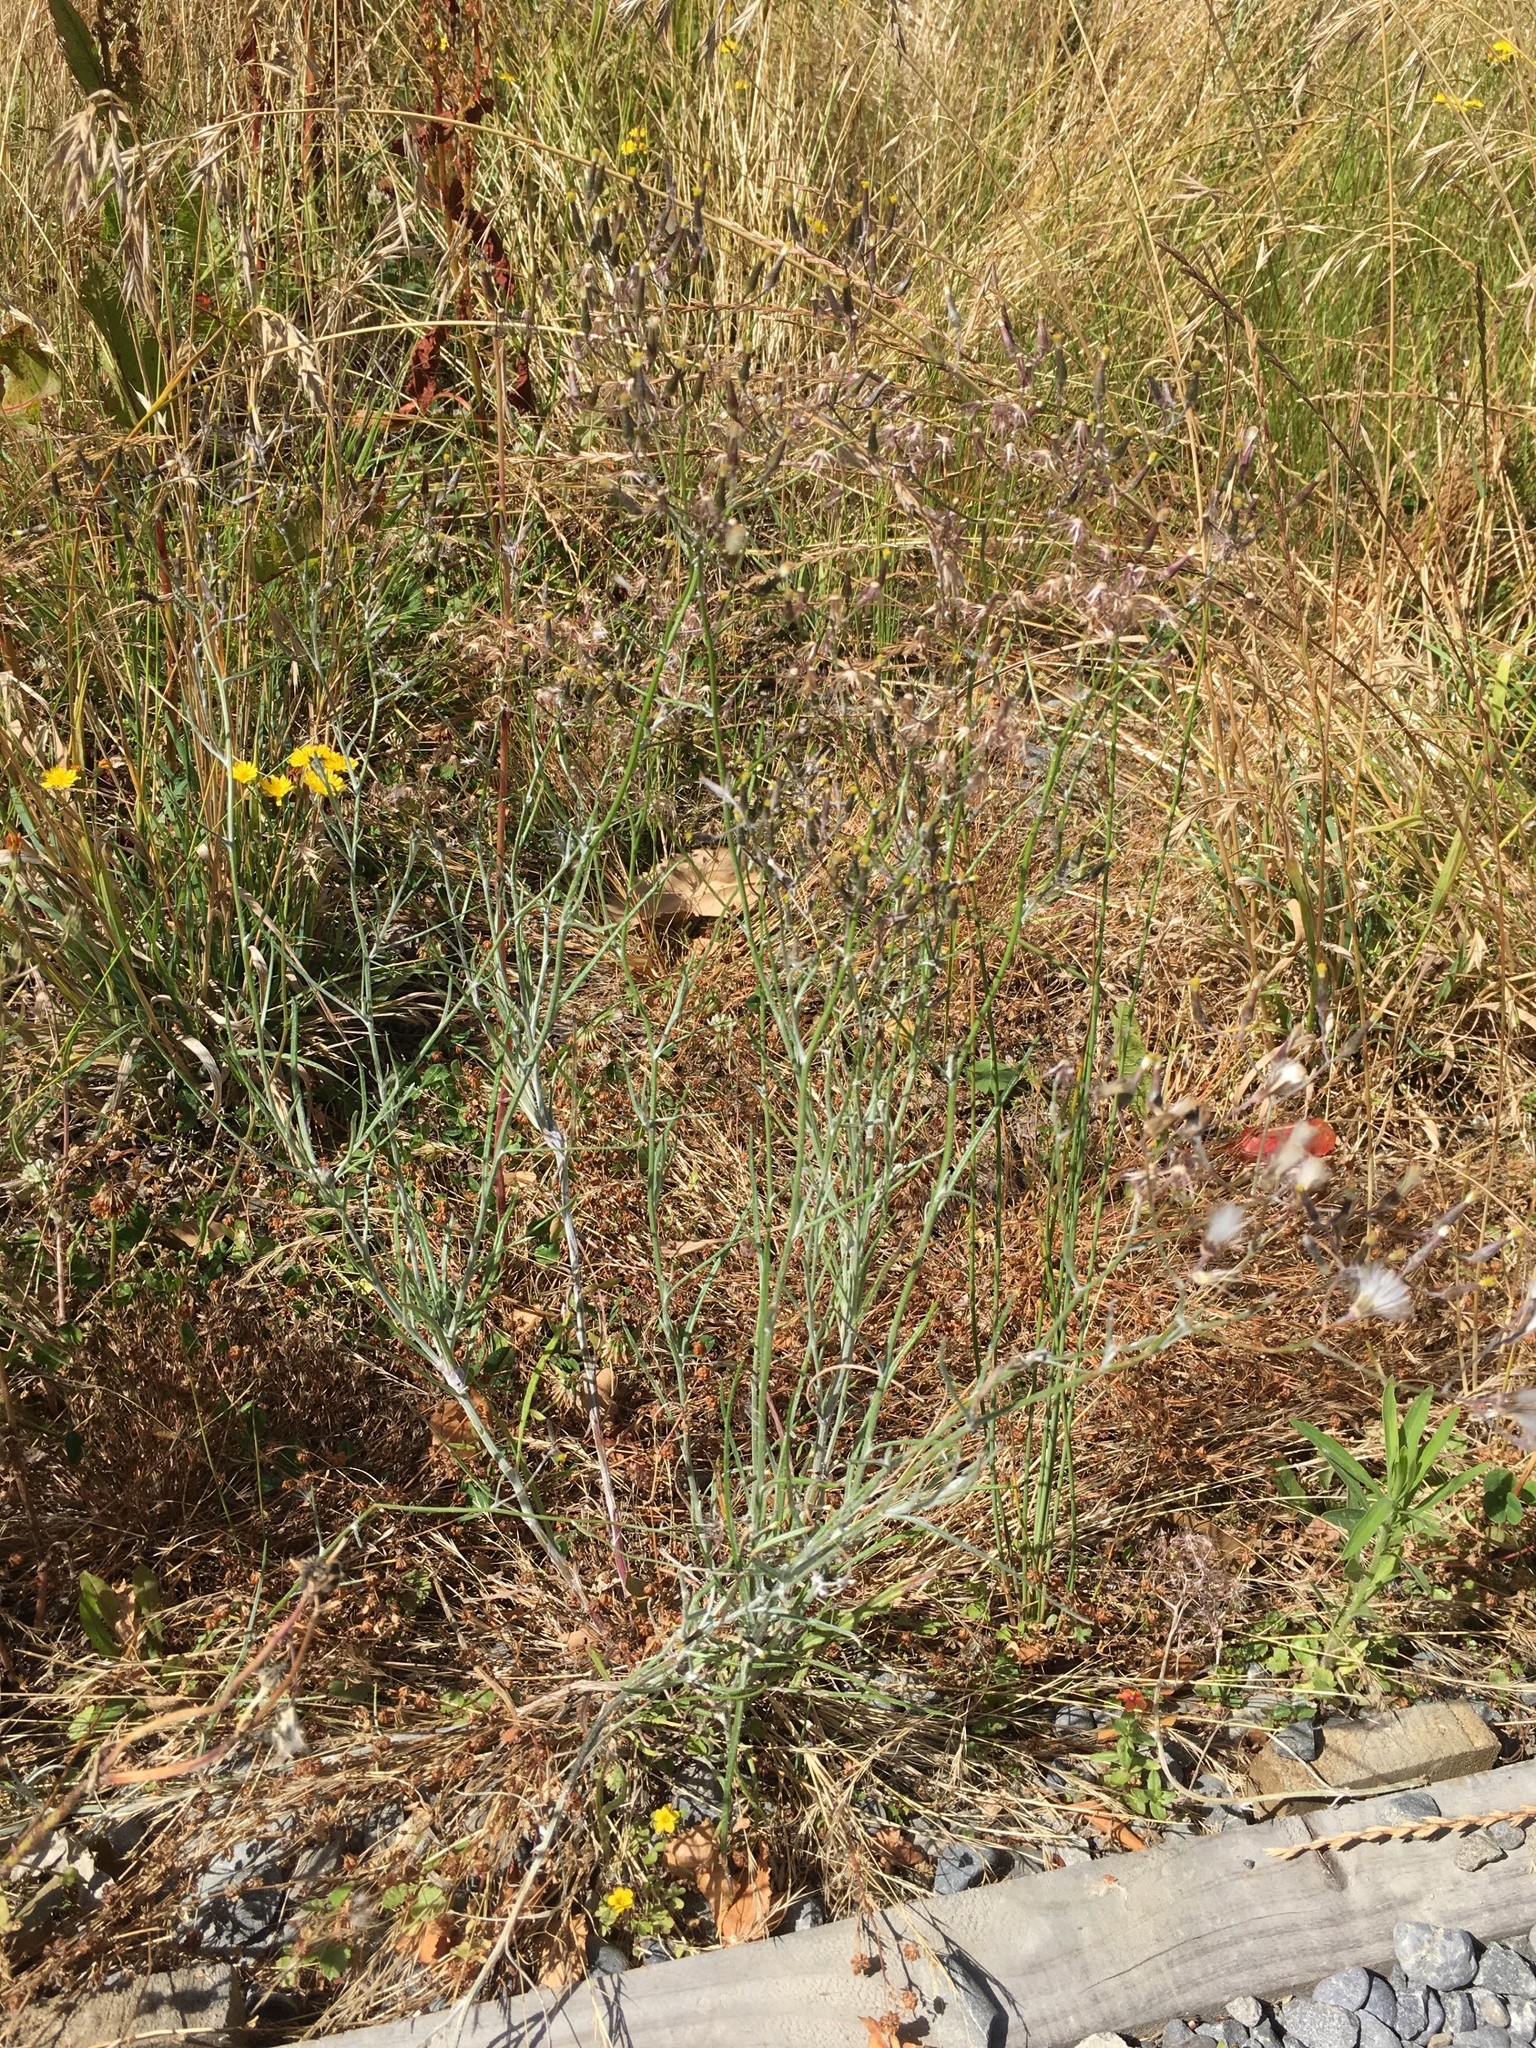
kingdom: Plantae
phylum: Tracheophyta
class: Magnoliopsida
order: Asterales
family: Asteraceae
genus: Senecio
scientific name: Senecio quadridentatus
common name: Cotton fireweed
